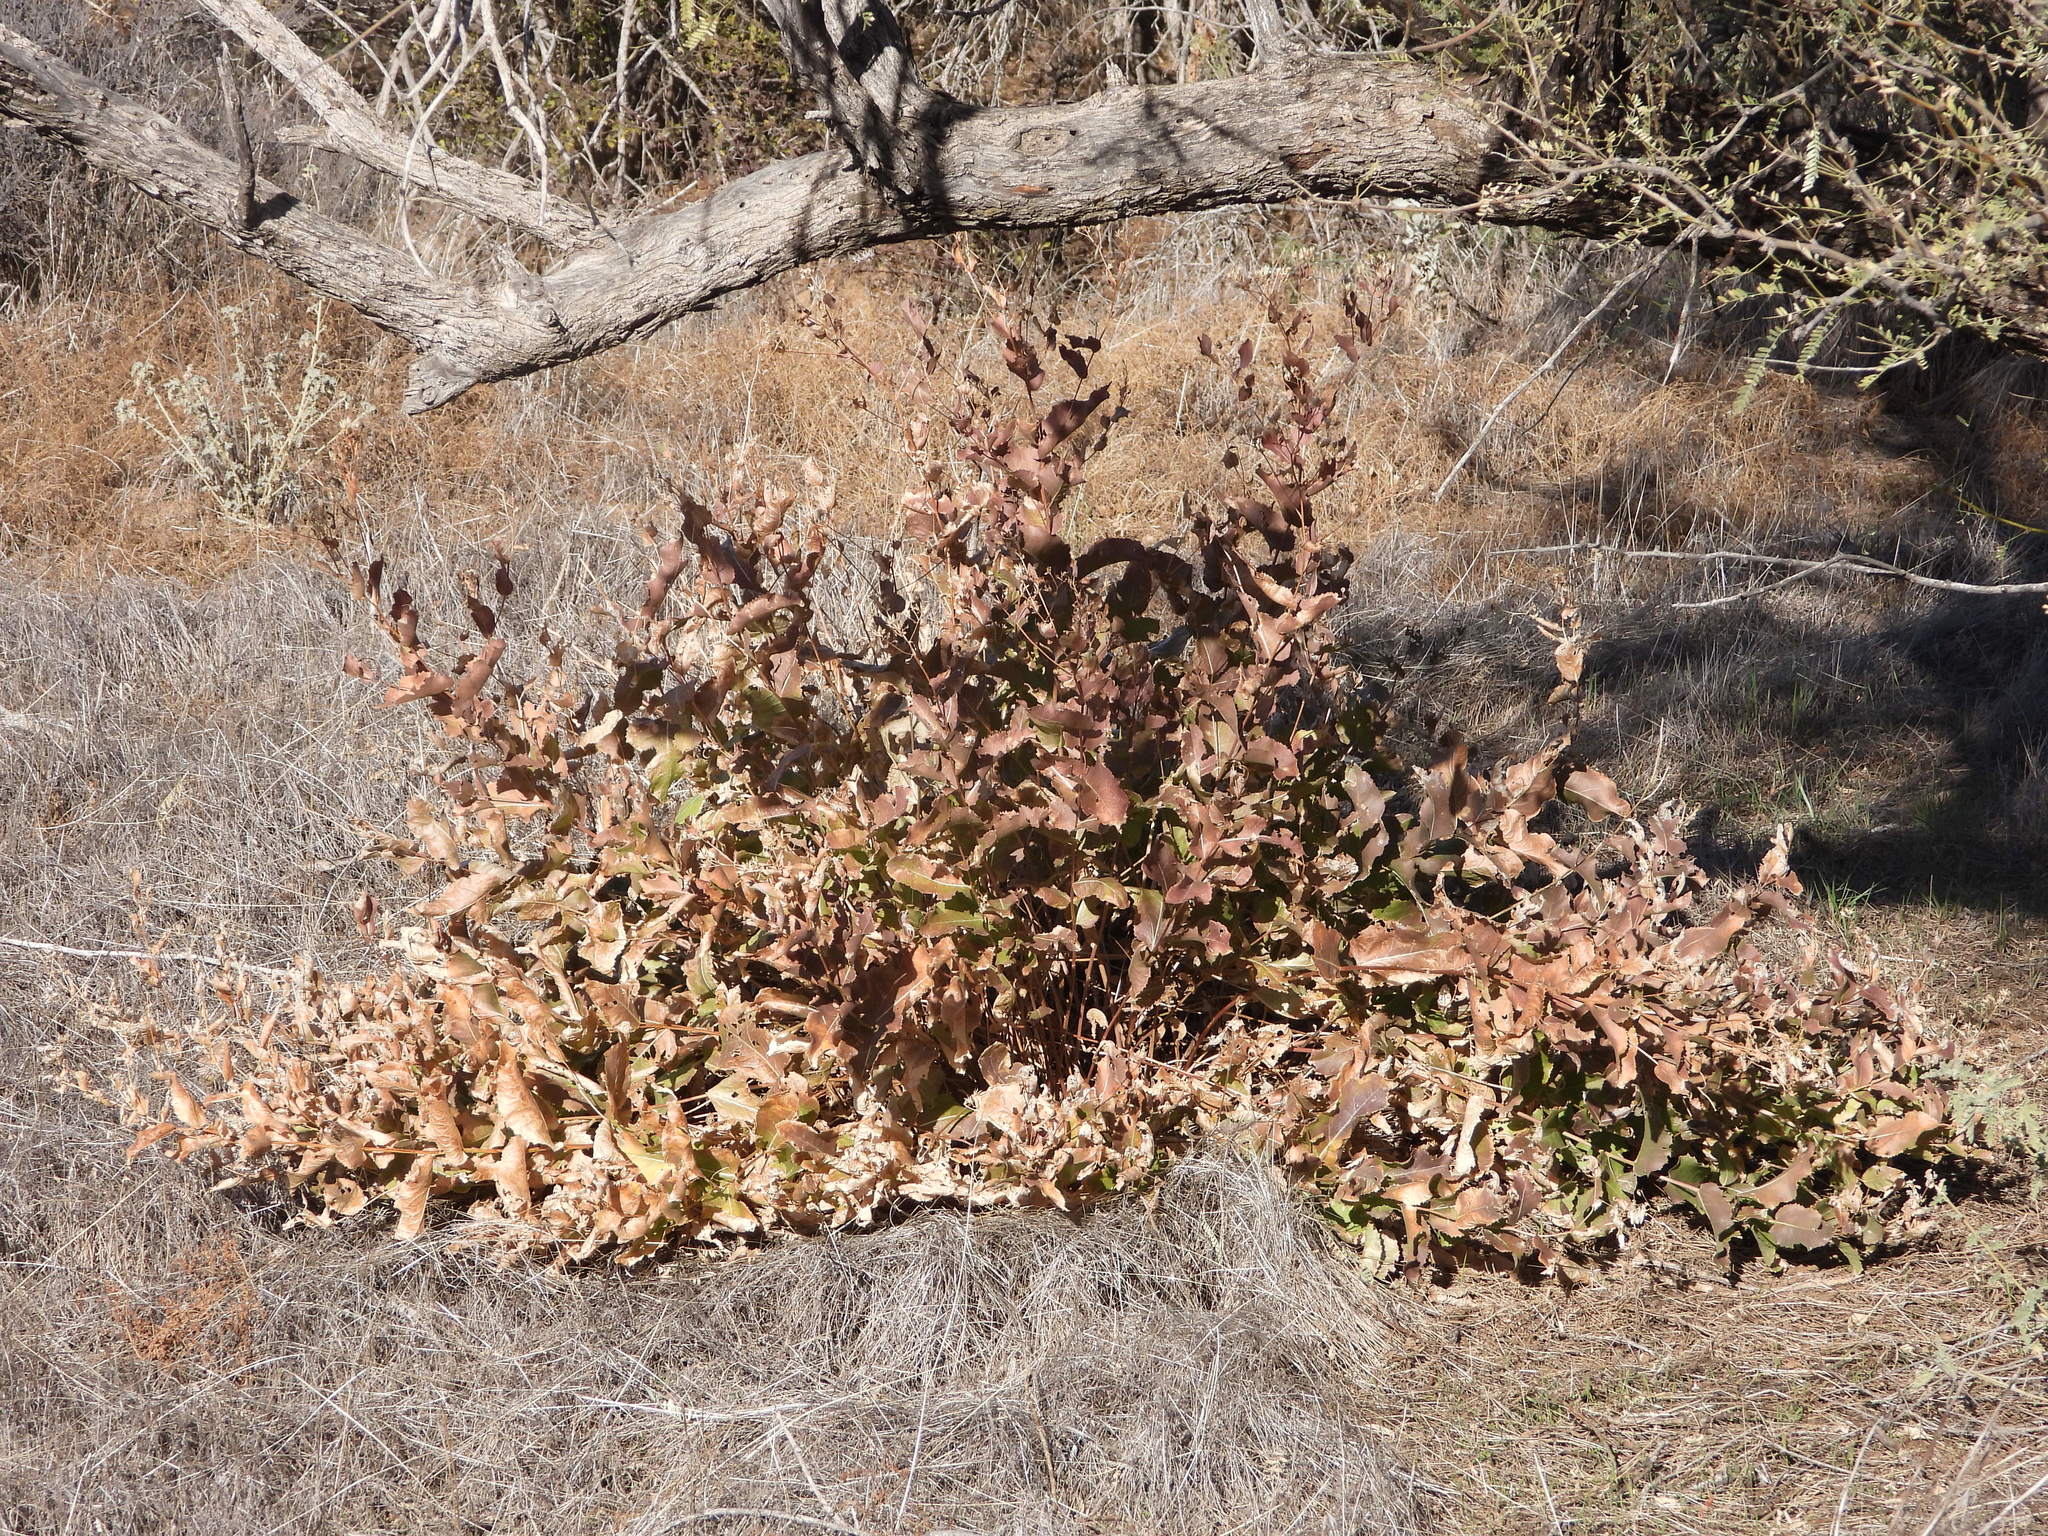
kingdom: Plantae
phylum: Tracheophyta
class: Magnoliopsida
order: Asterales
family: Asteraceae
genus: Acourtia
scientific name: Acourtia wrightii
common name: Brownfoot
